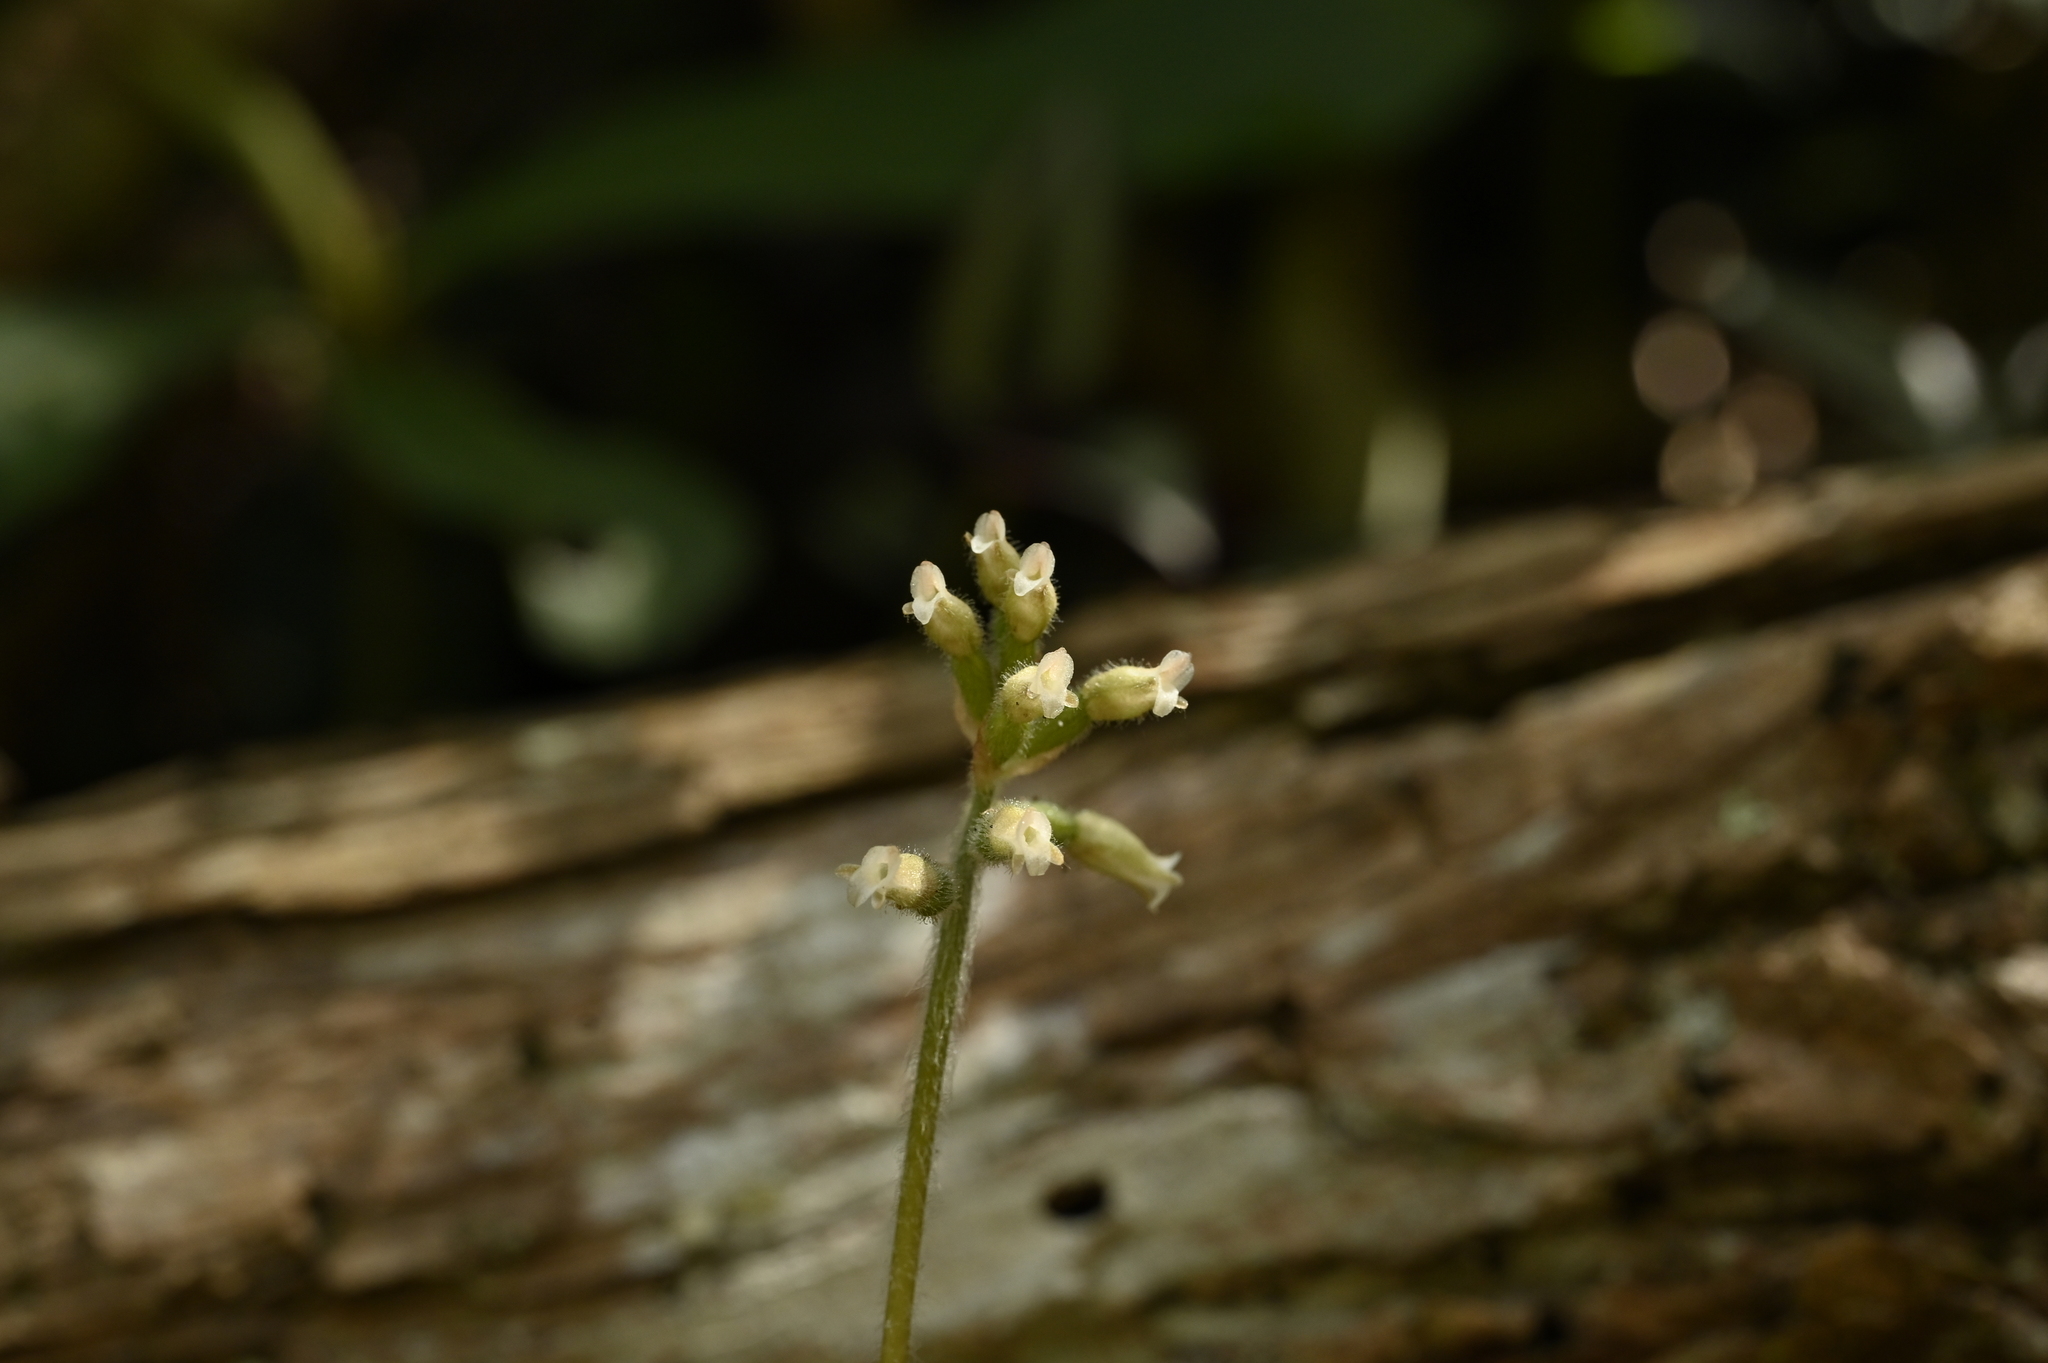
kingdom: Plantae
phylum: Tracheophyta
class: Liliopsida
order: Asparagales
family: Orchidaceae
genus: Cheirostylis
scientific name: Cheirostylis takeoi
